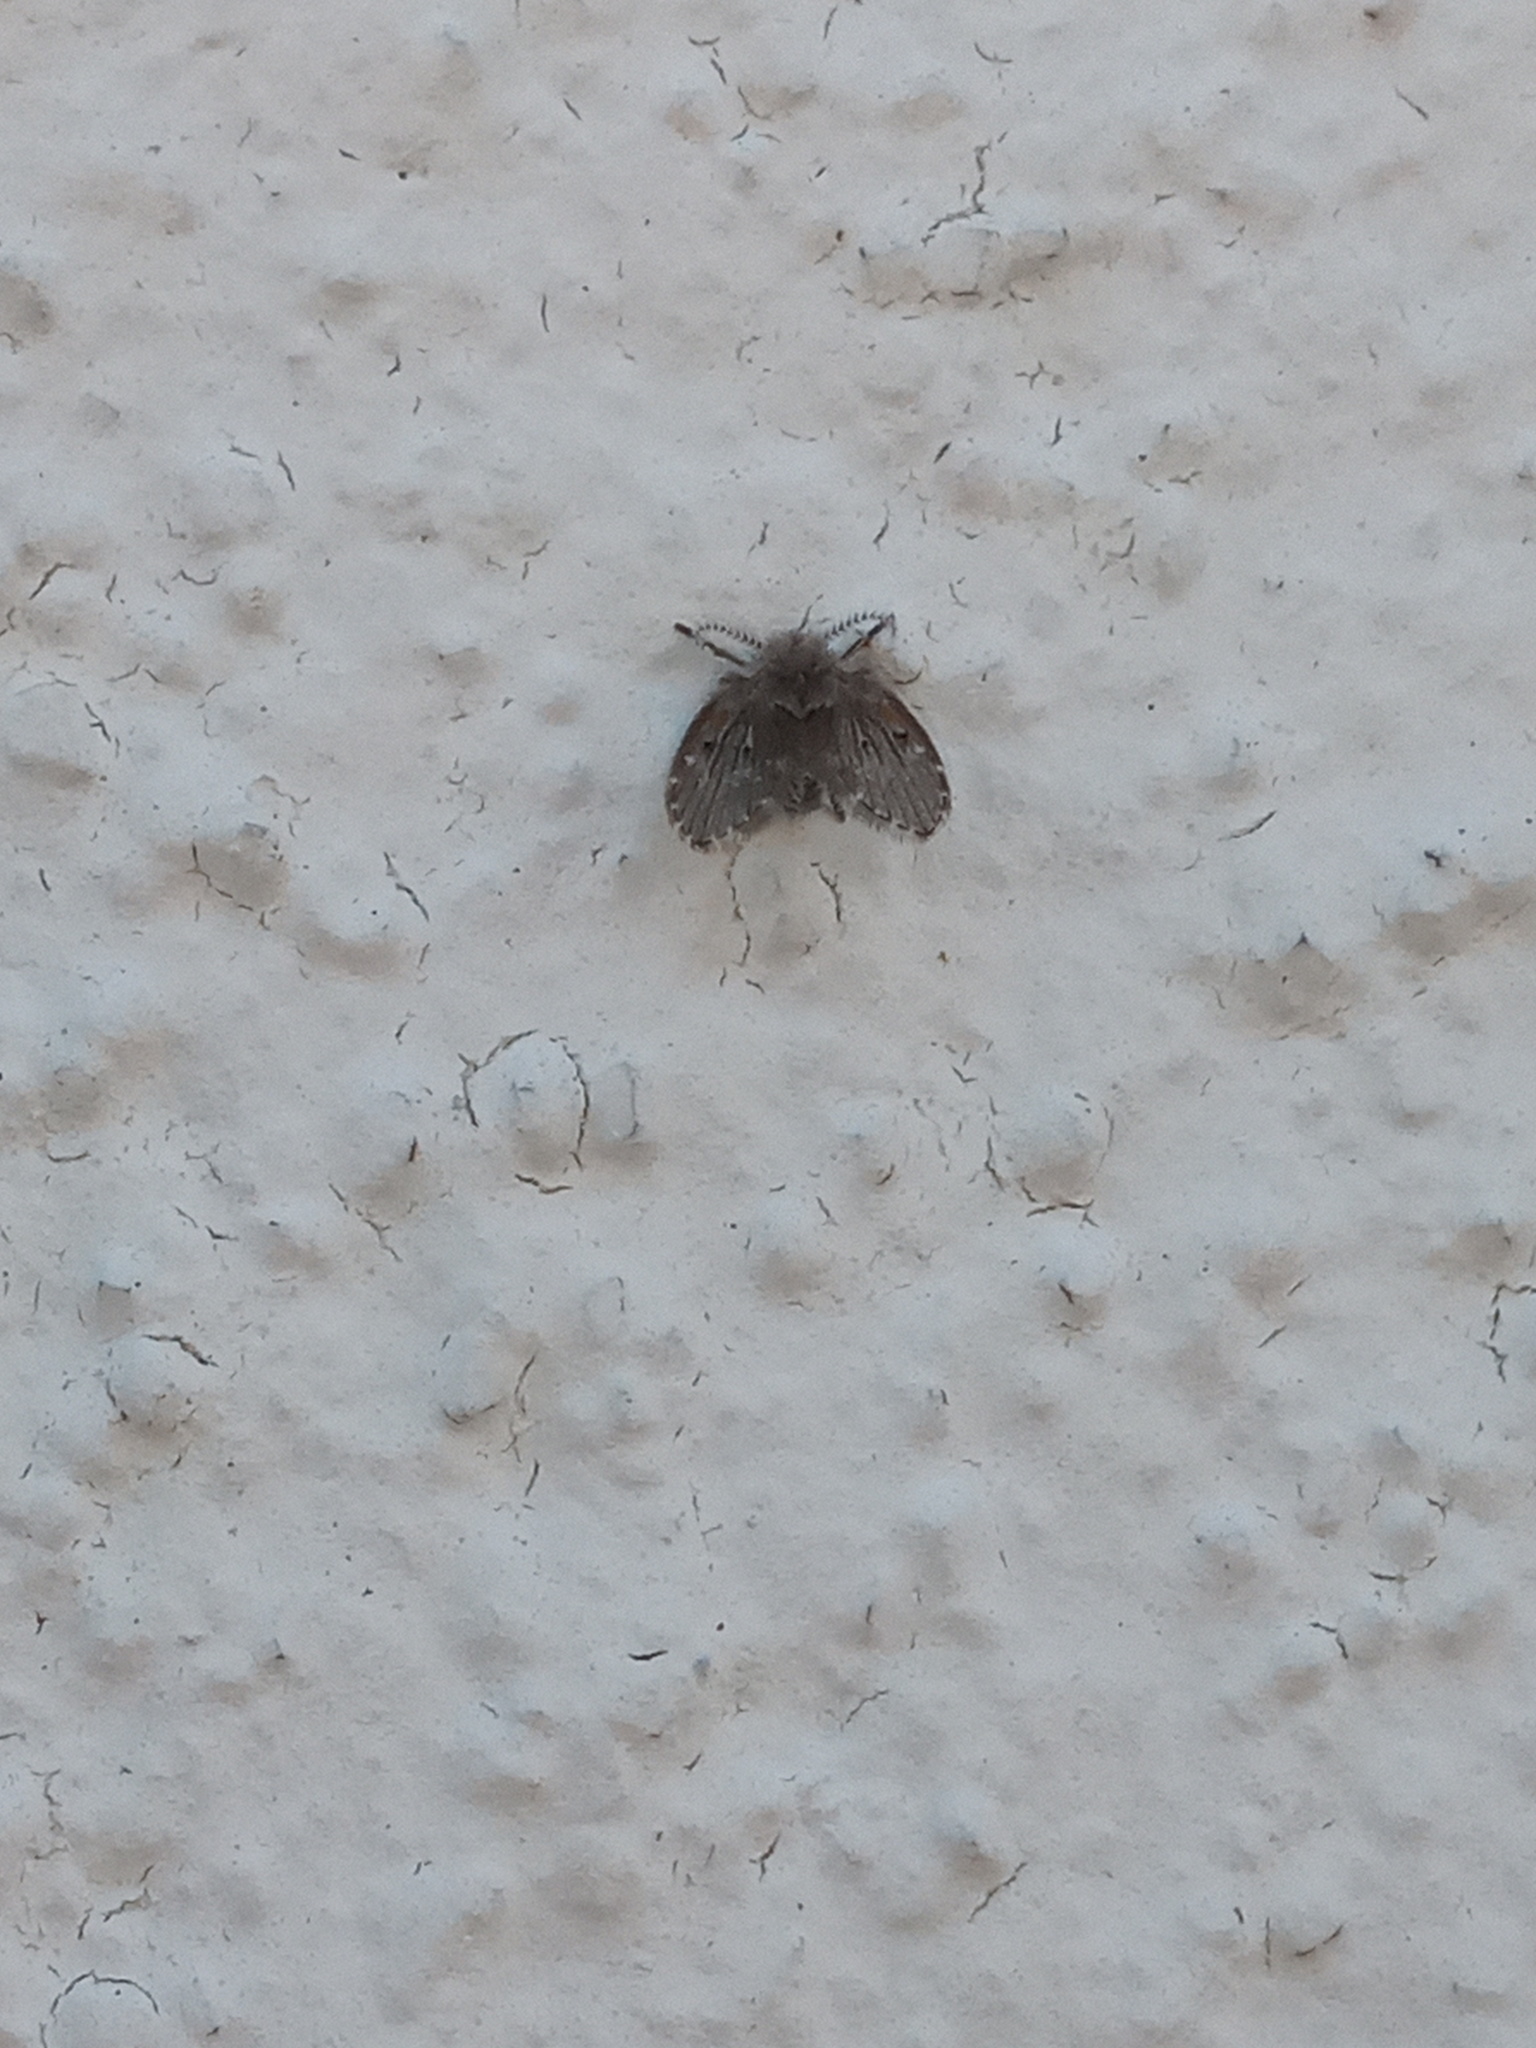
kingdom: Animalia
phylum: Arthropoda
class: Insecta
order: Diptera
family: Psychodidae
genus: Clogmia
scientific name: Clogmia albipunctatus
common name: White-spotted moth fly
